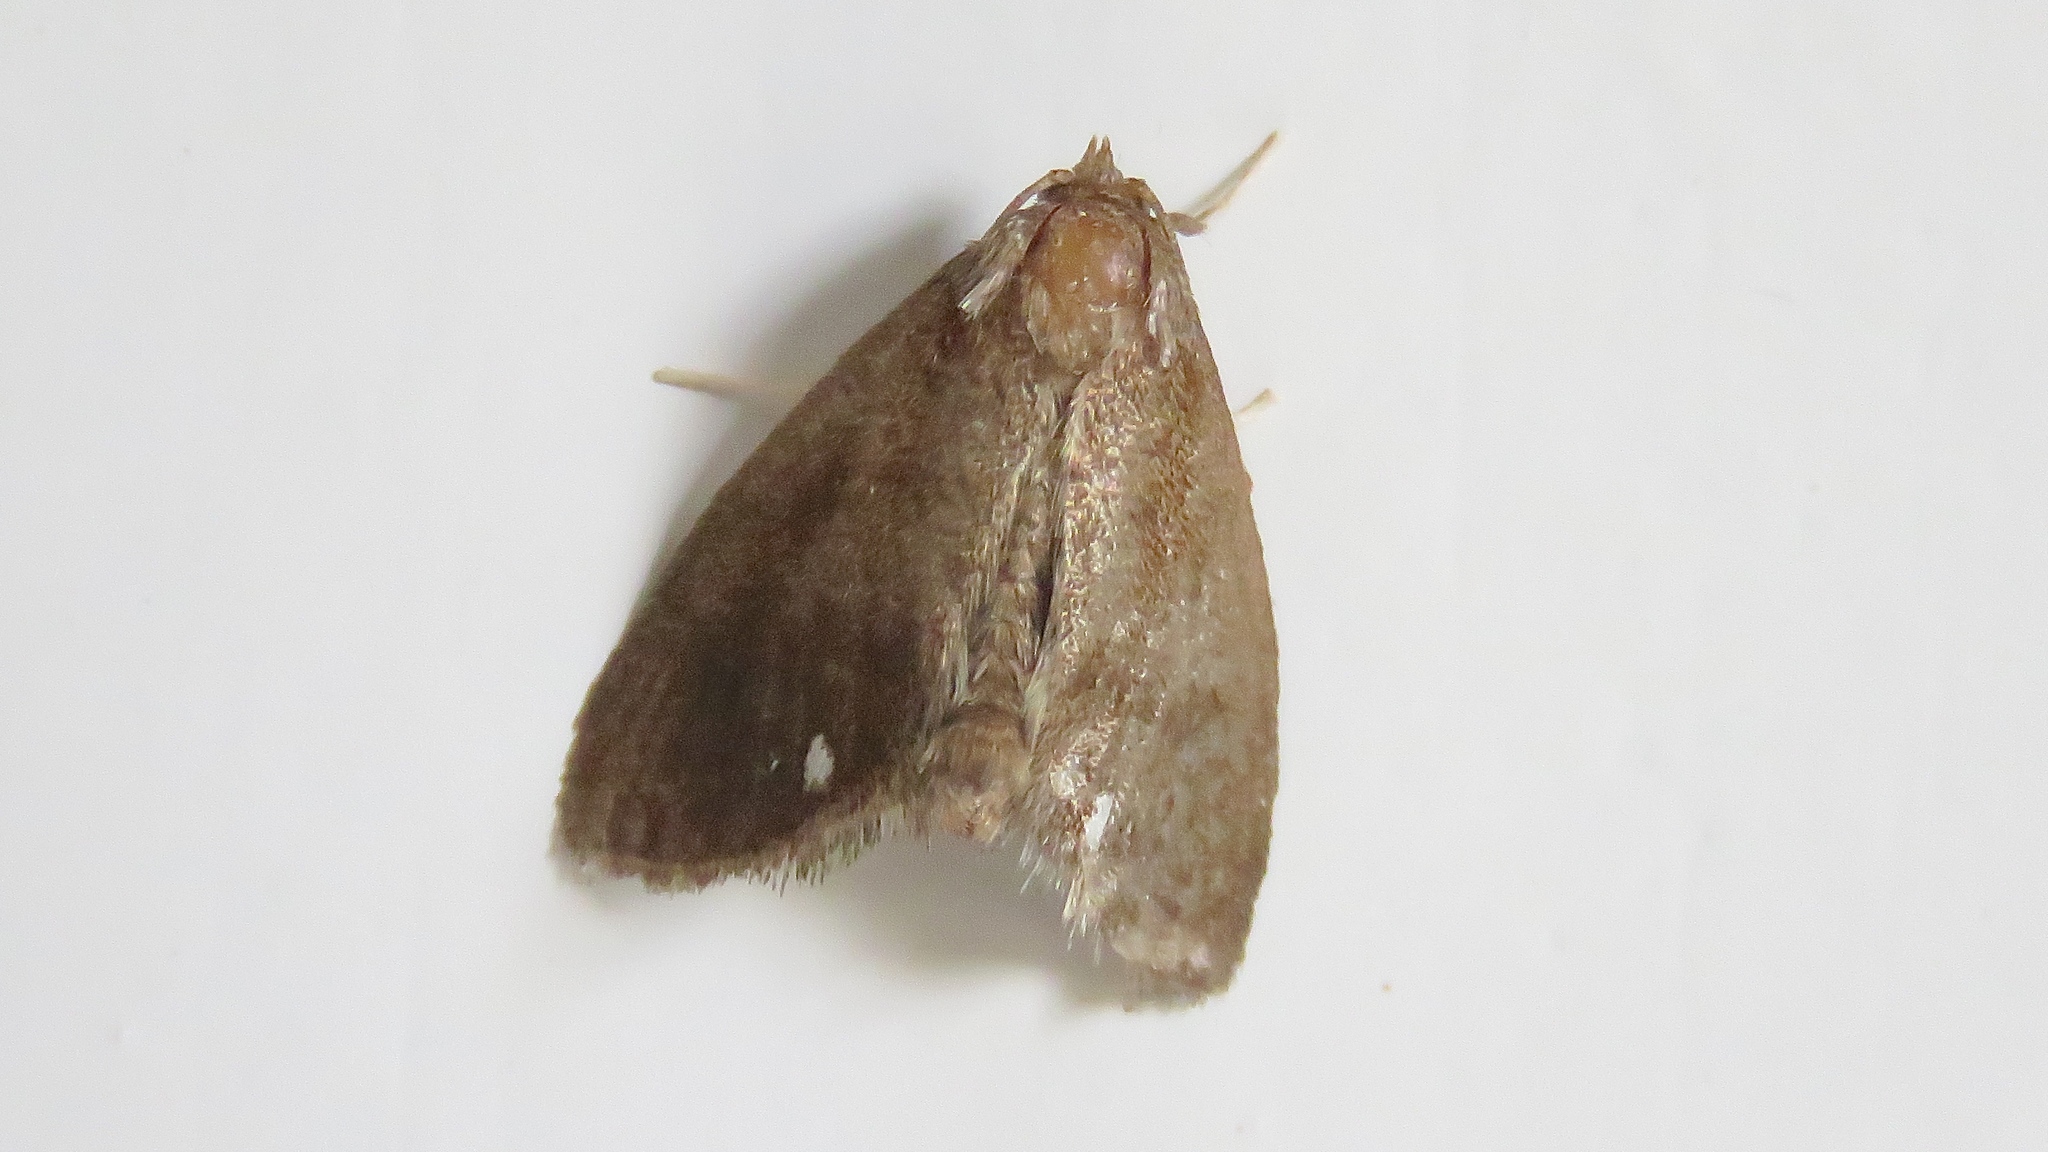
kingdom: Animalia
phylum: Arthropoda
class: Insecta
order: Lepidoptera
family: Limacodidae
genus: Packardia
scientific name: Packardia geminata
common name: Jeweled tailed slug moth
